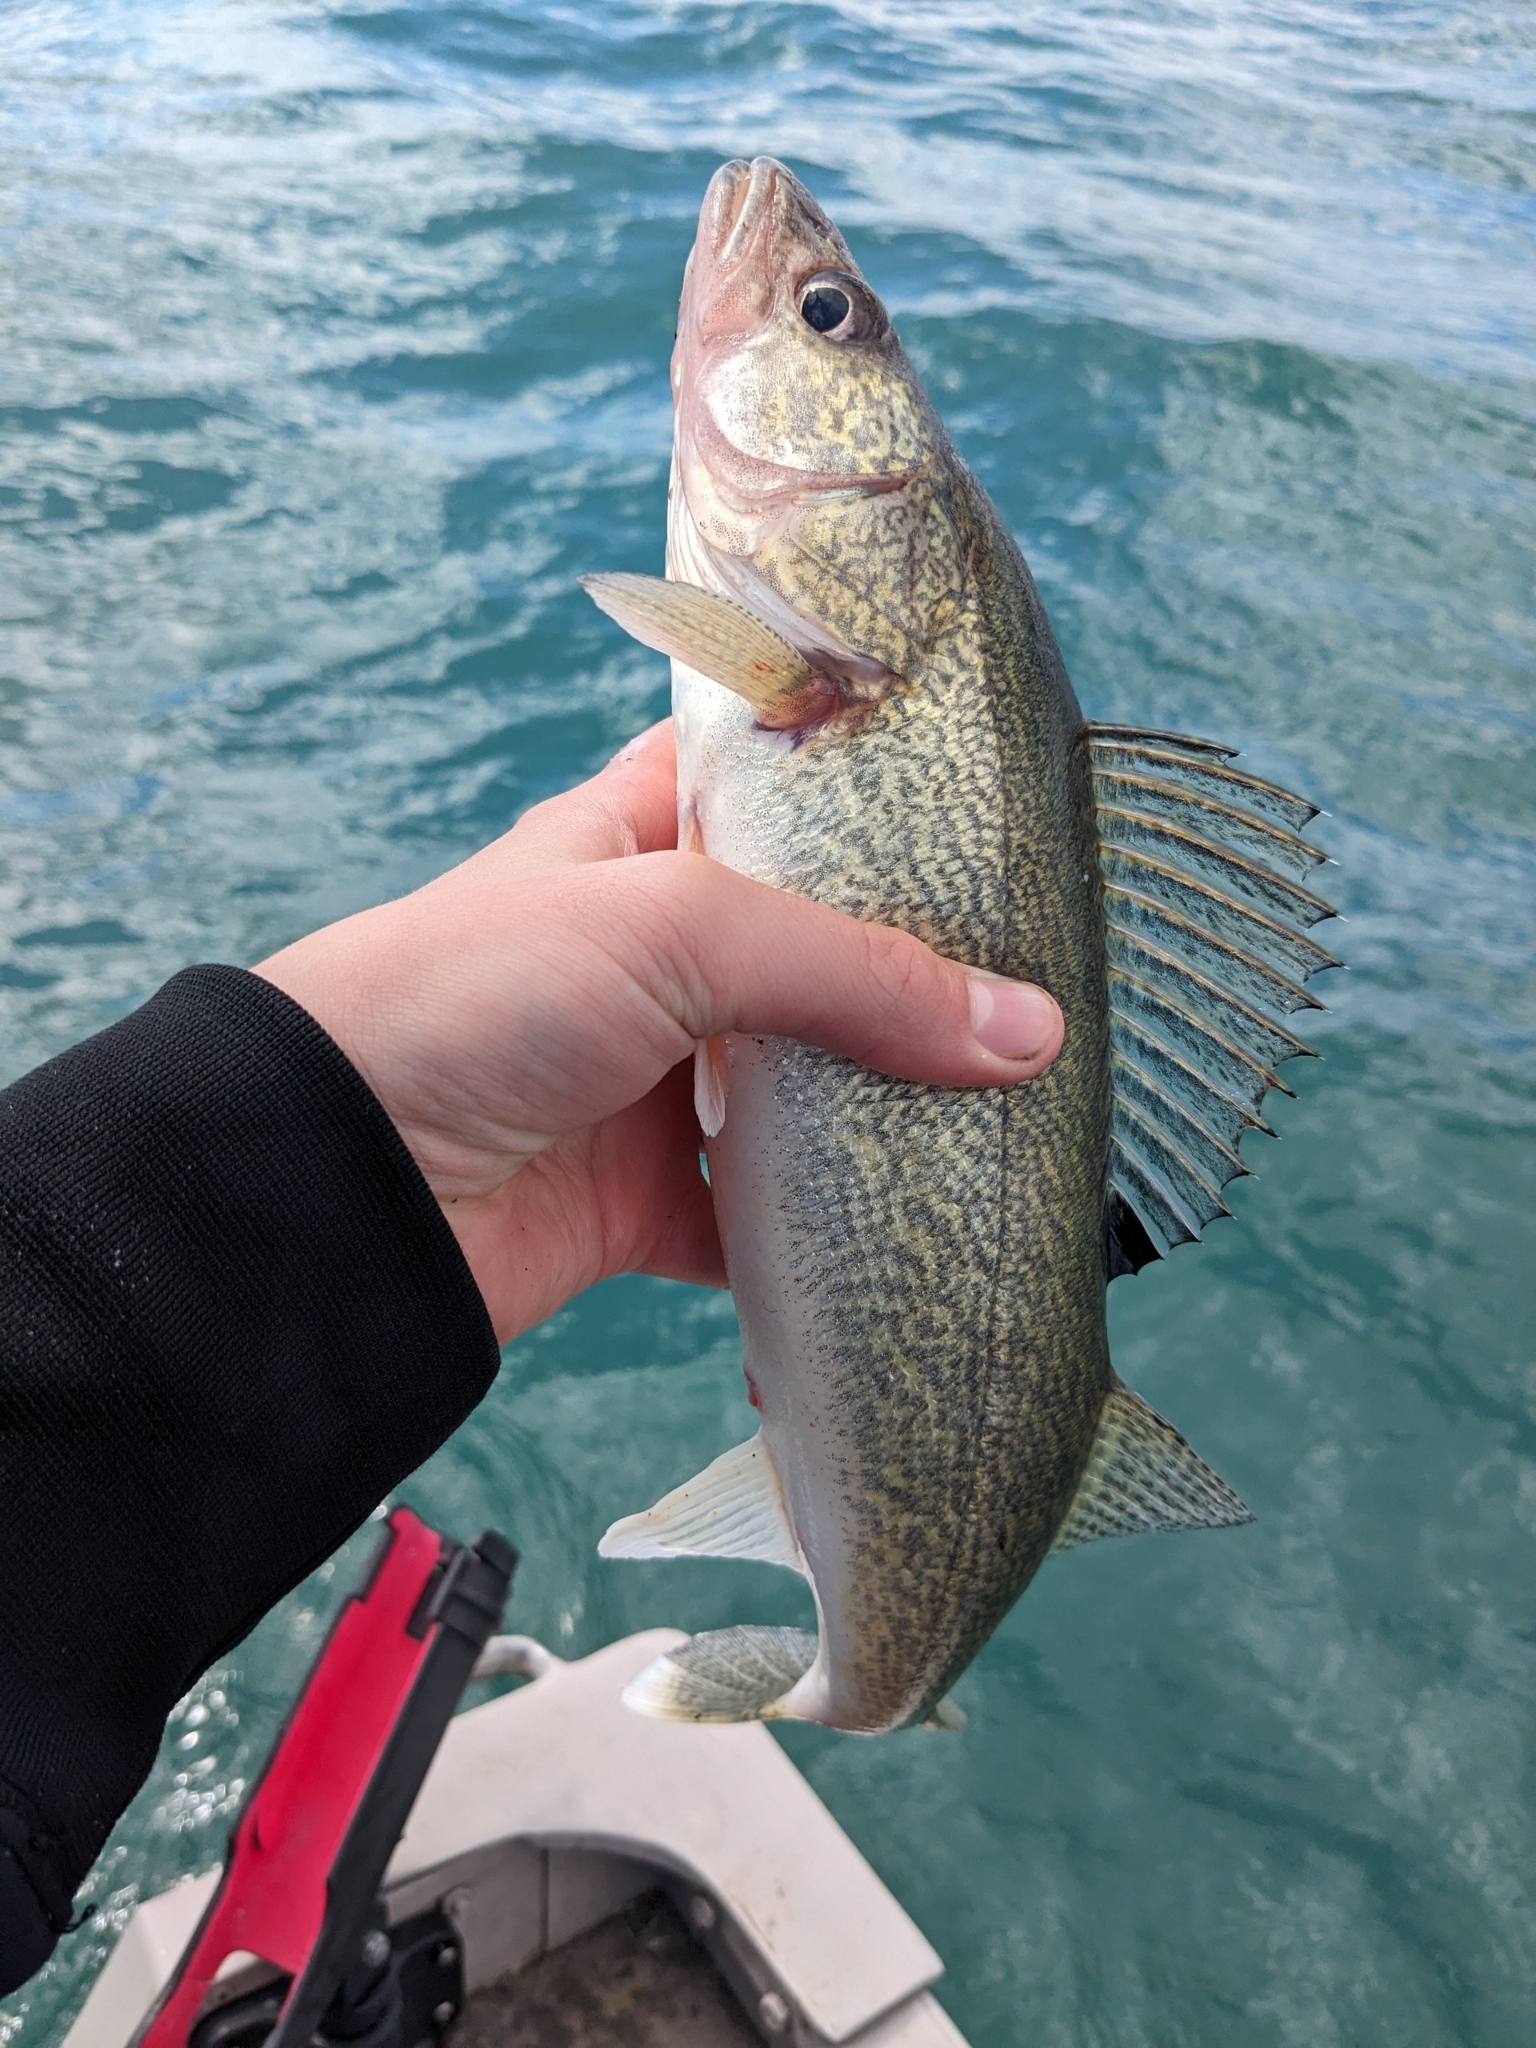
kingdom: Animalia
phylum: Chordata
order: Perciformes
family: Percidae
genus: Sander
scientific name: Sander vitreus
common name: Walleye
